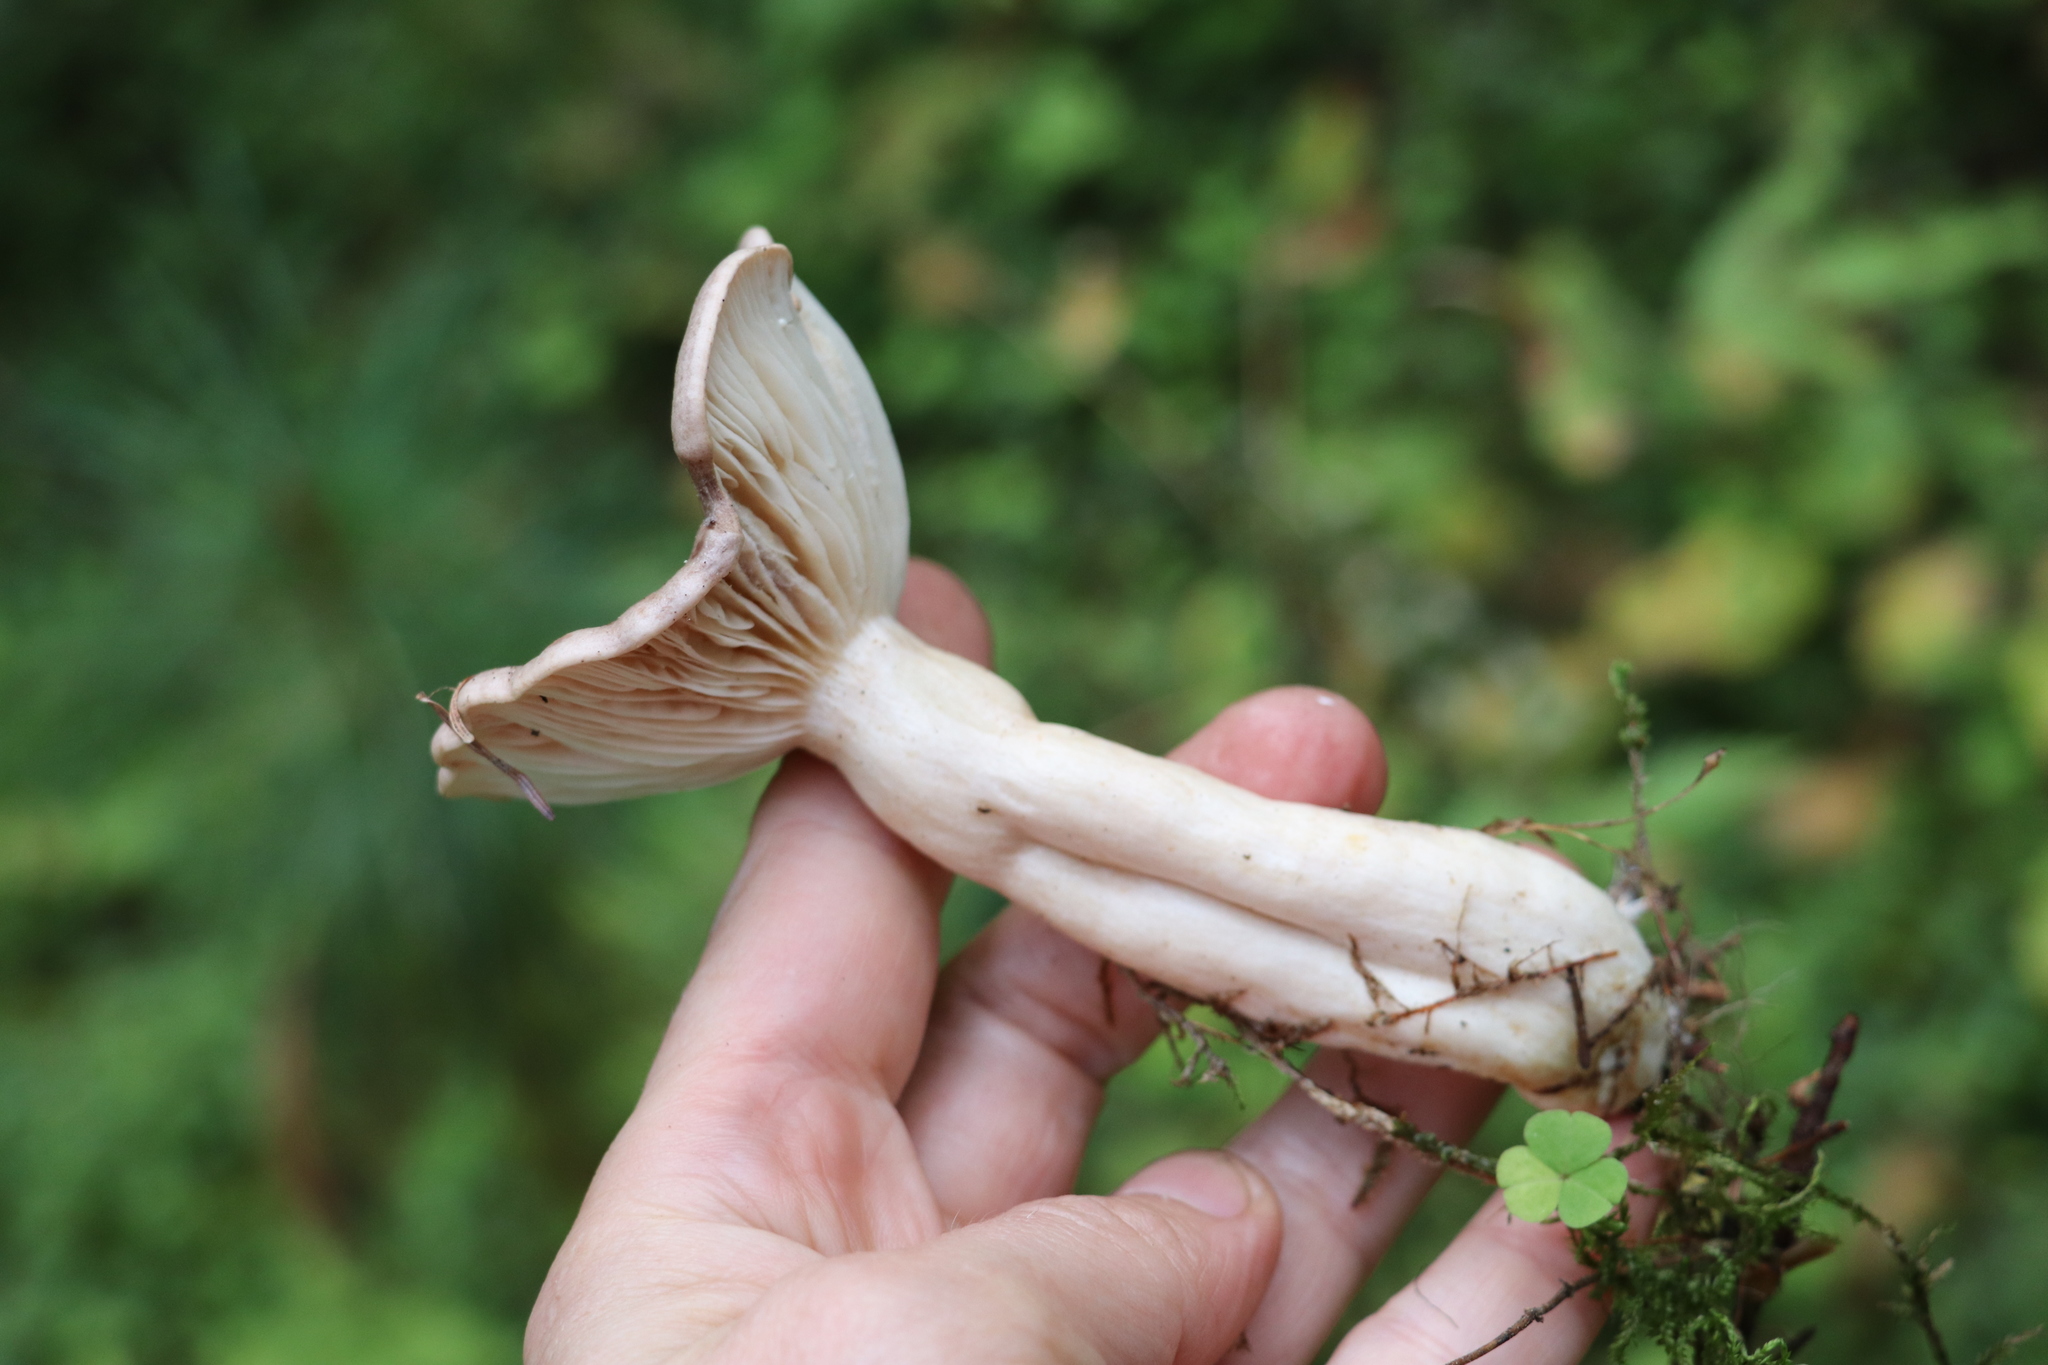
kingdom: Fungi
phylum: Basidiomycota
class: Agaricomycetes
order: Russulales
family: Russulaceae
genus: Lactarius
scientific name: Lactarius trivialis
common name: Tacked milkcap
